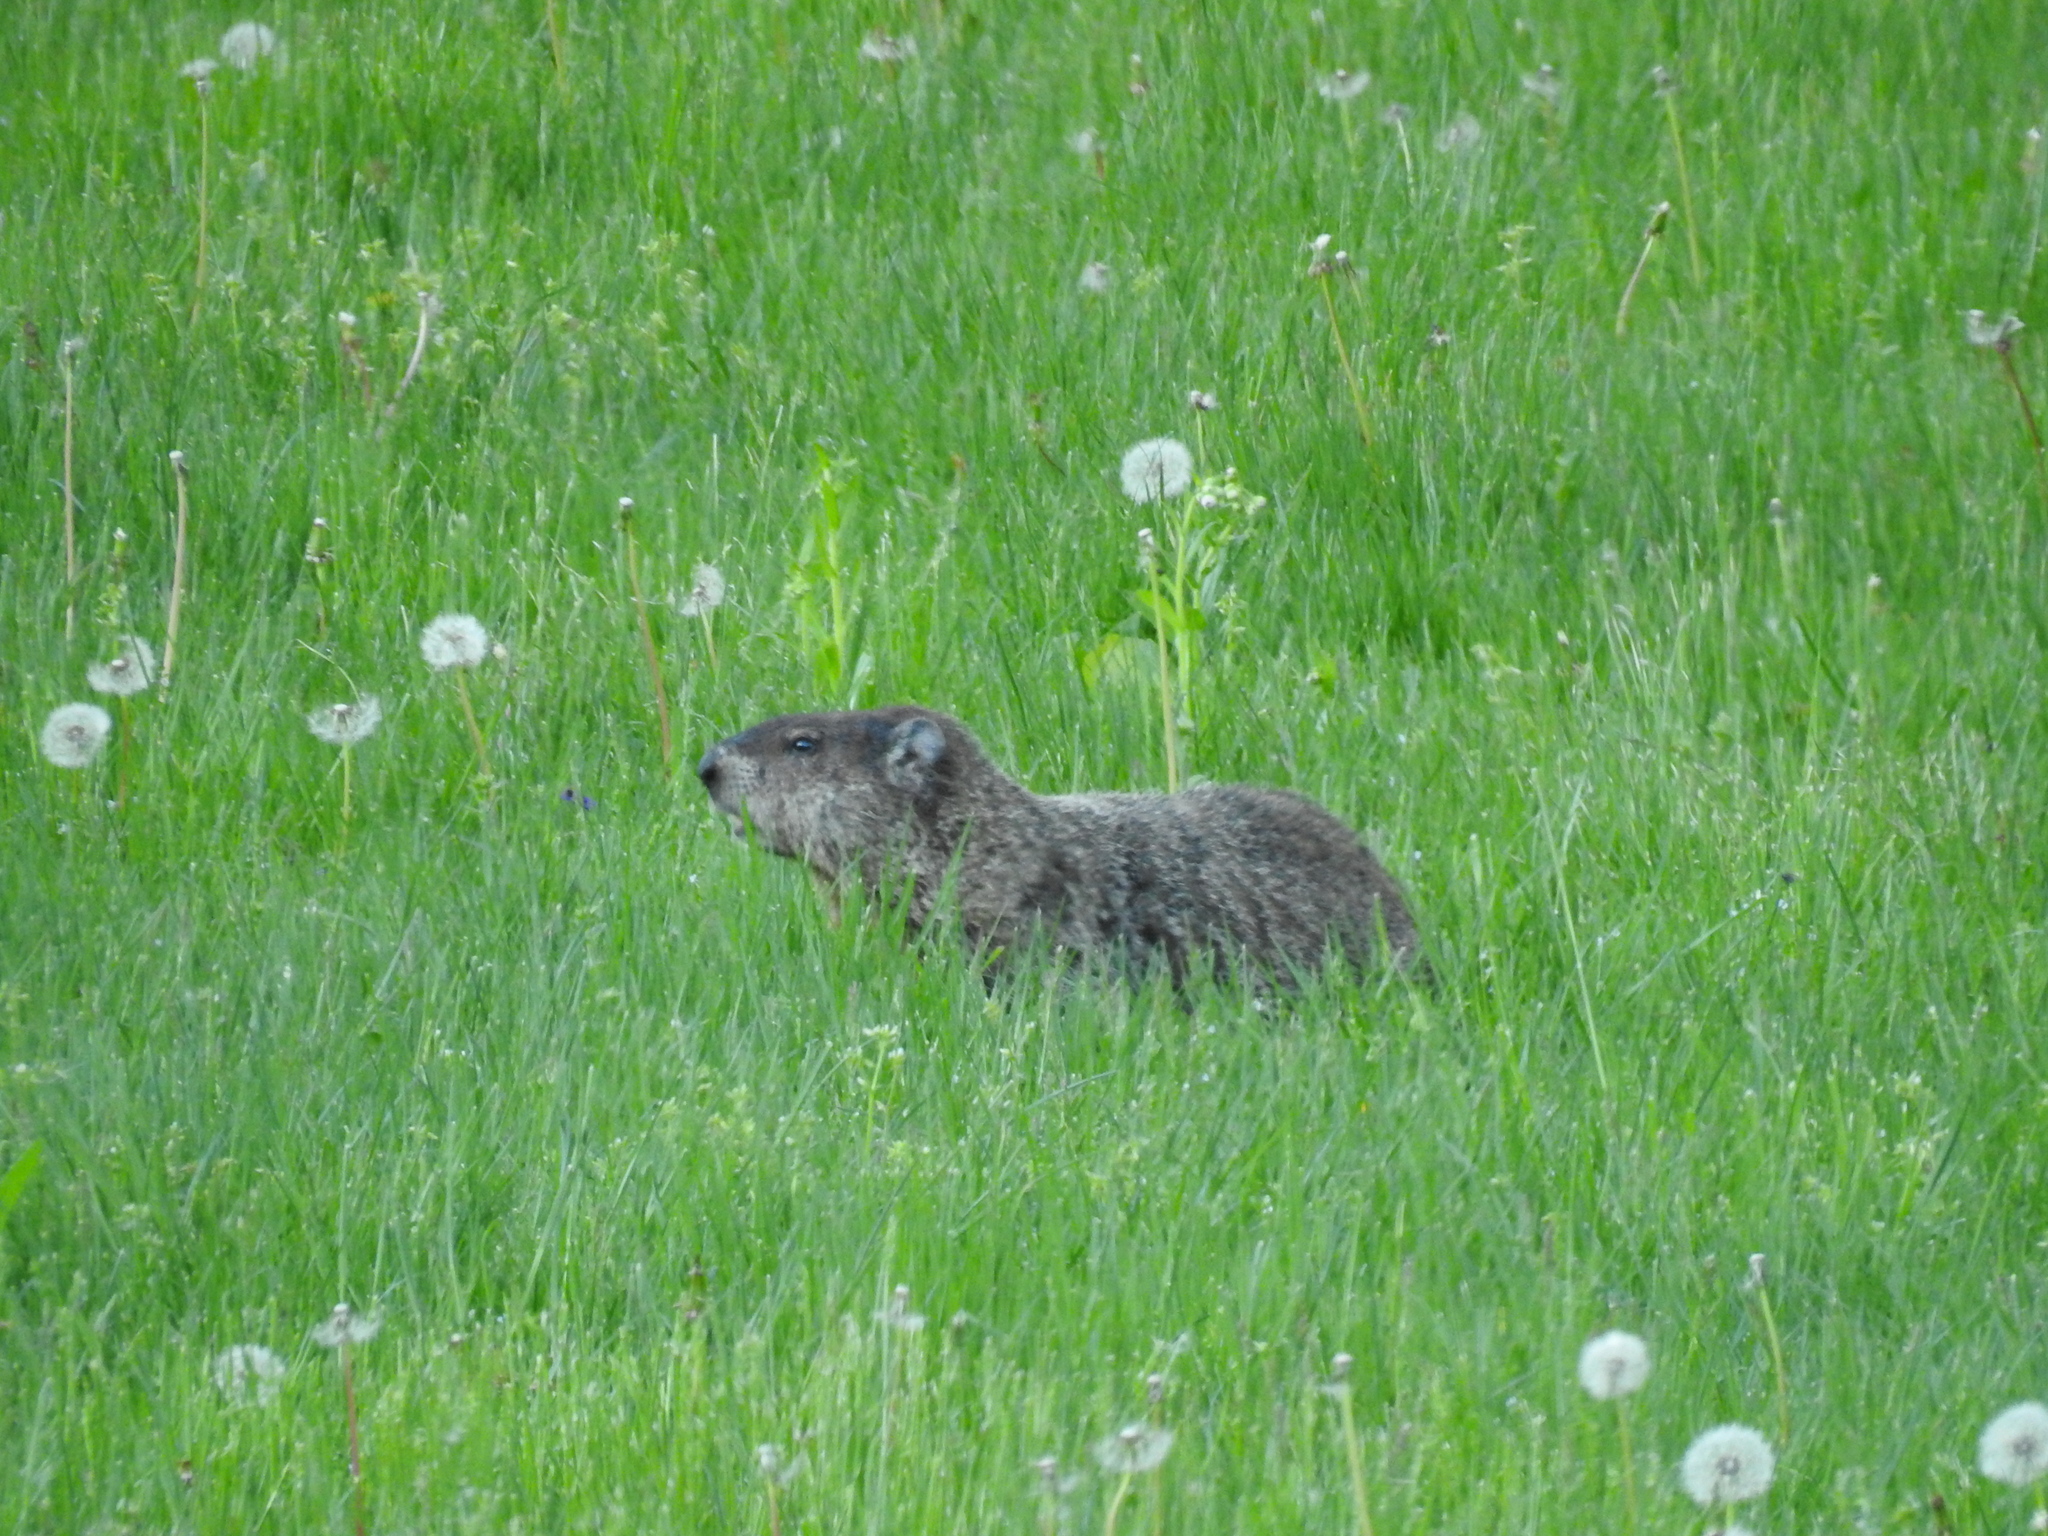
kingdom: Animalia
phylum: Chordata
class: Mammalia
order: Rodentia
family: Sciuridae
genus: Marmota
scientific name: Marmota monax
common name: Groundhog
